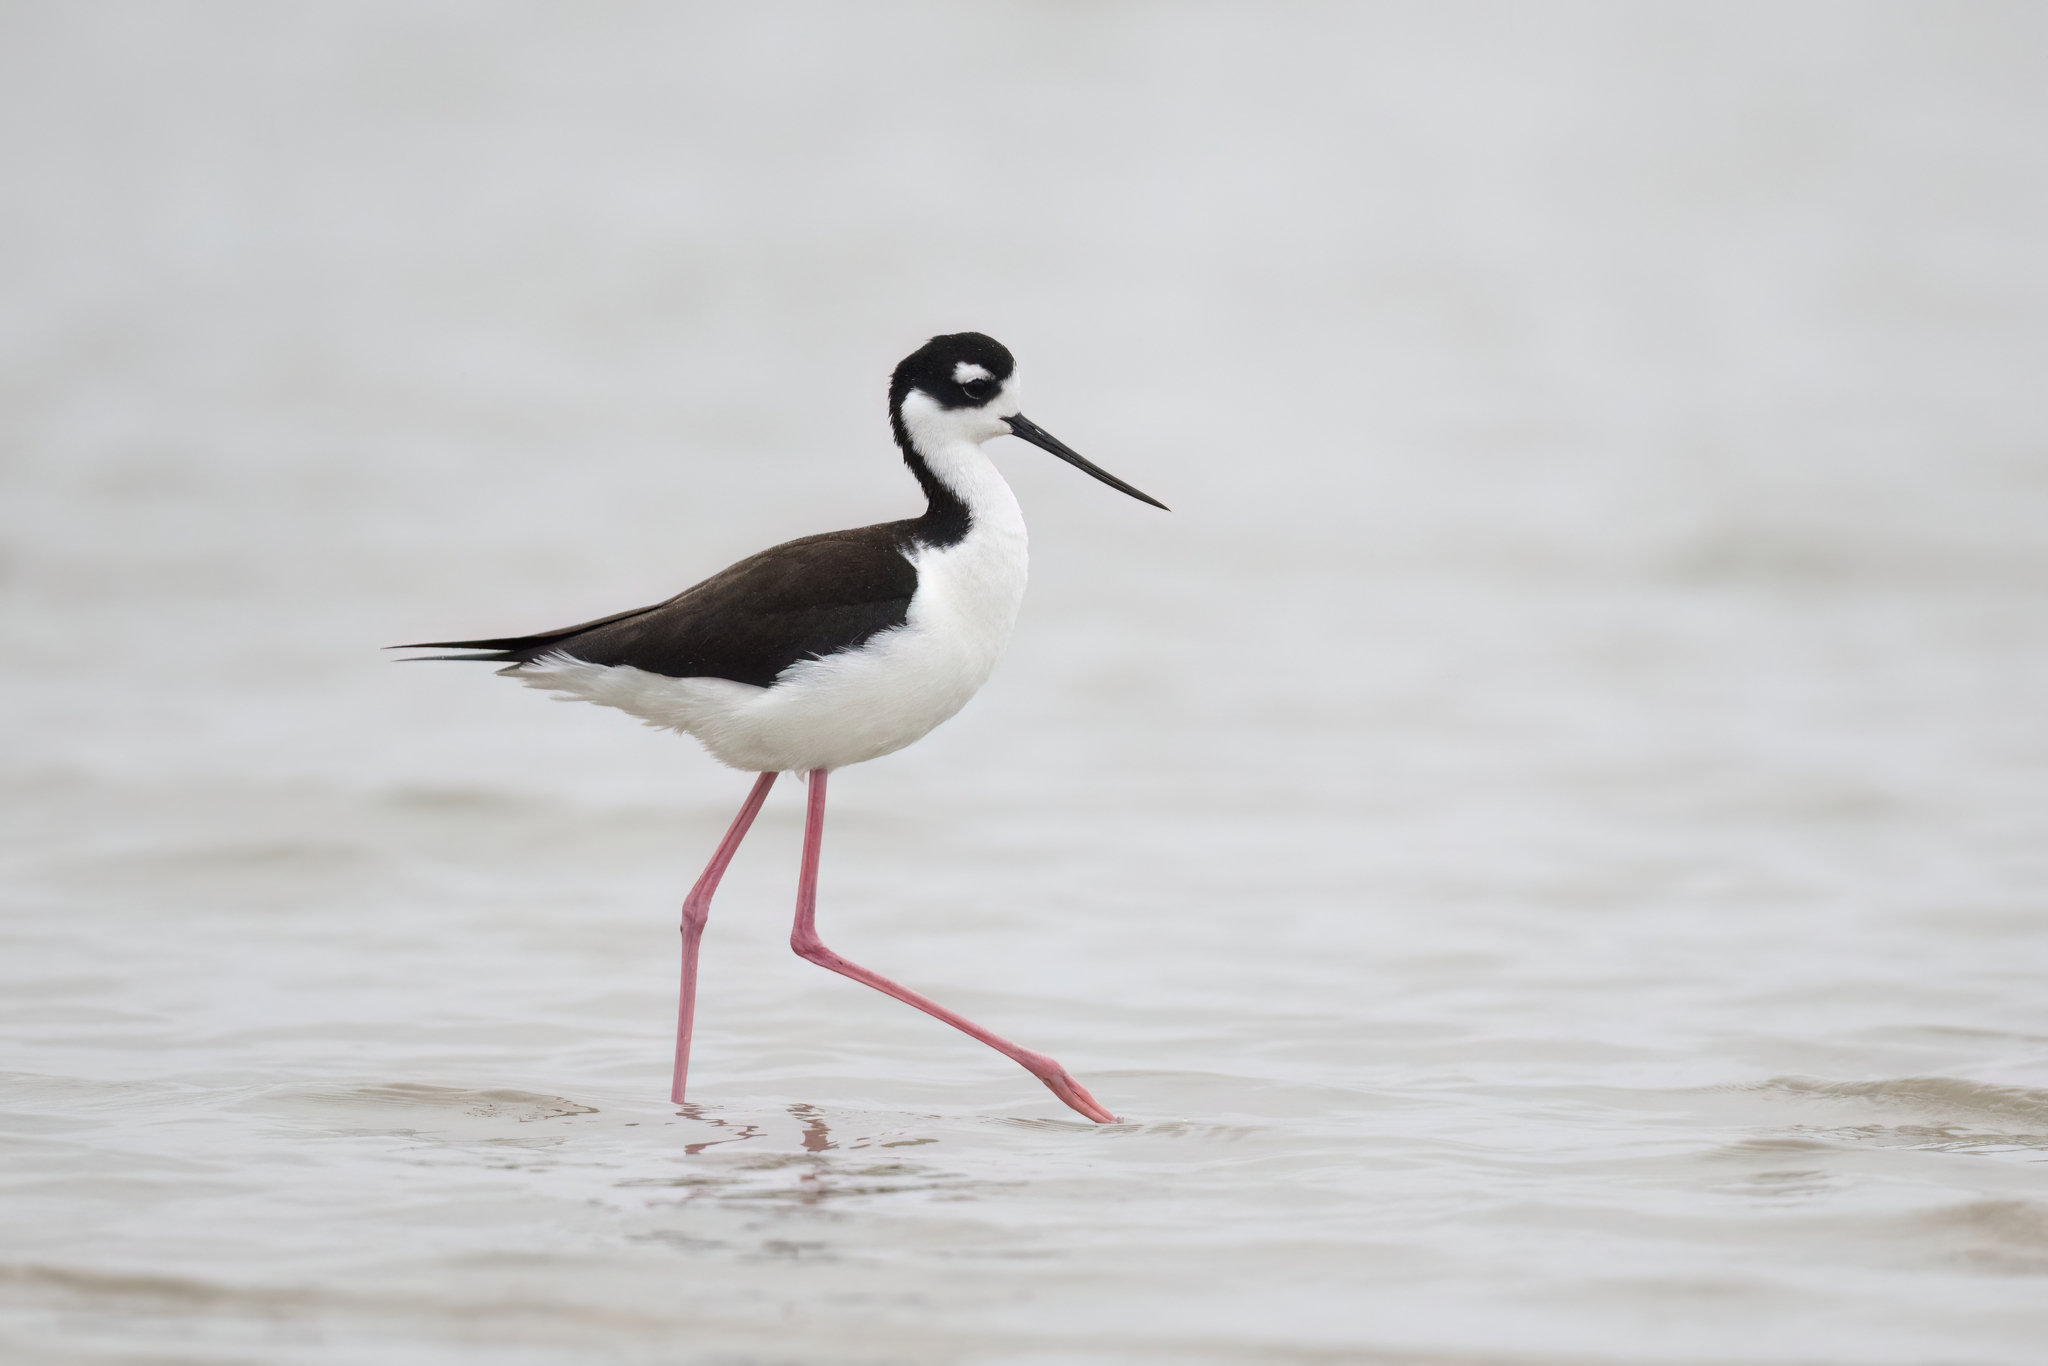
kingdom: Animalia
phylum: Chordata
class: Aves
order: Charadriiformes
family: Recurvirostridae
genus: Himantopus
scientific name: Himantopus mexicanus
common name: Black-necked stilt
